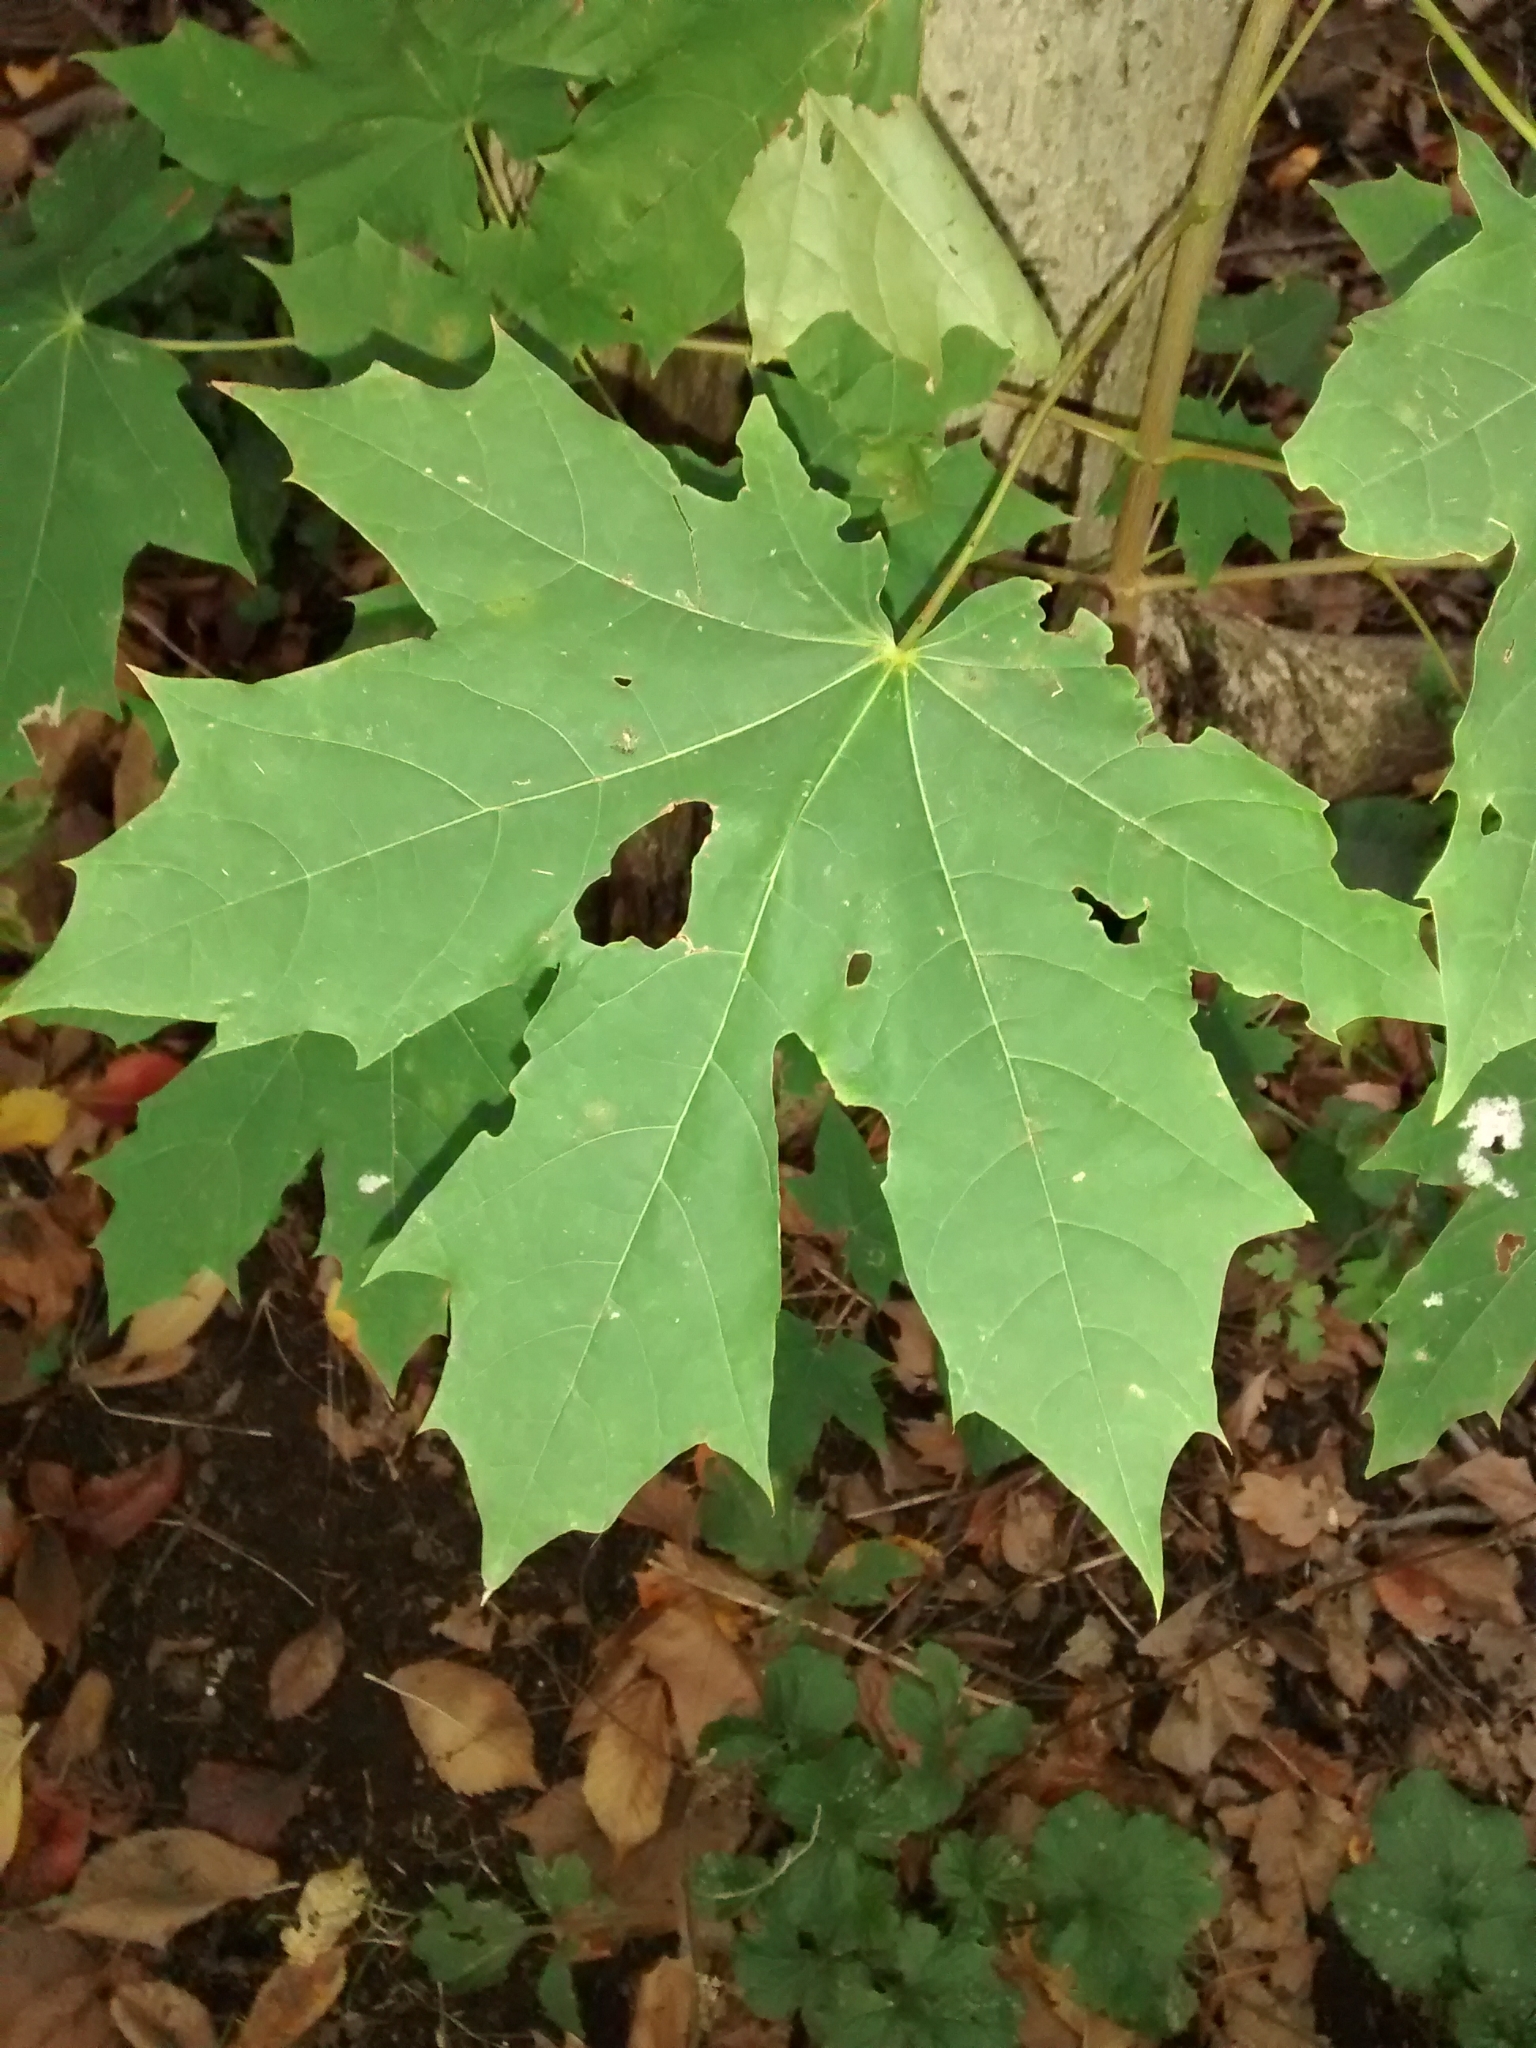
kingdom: Plantae
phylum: Tracheophyta
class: Magnoliopsida
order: Sapindales
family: Sapindaceae
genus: Acer
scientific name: Acer platanoides
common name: Norway maple
